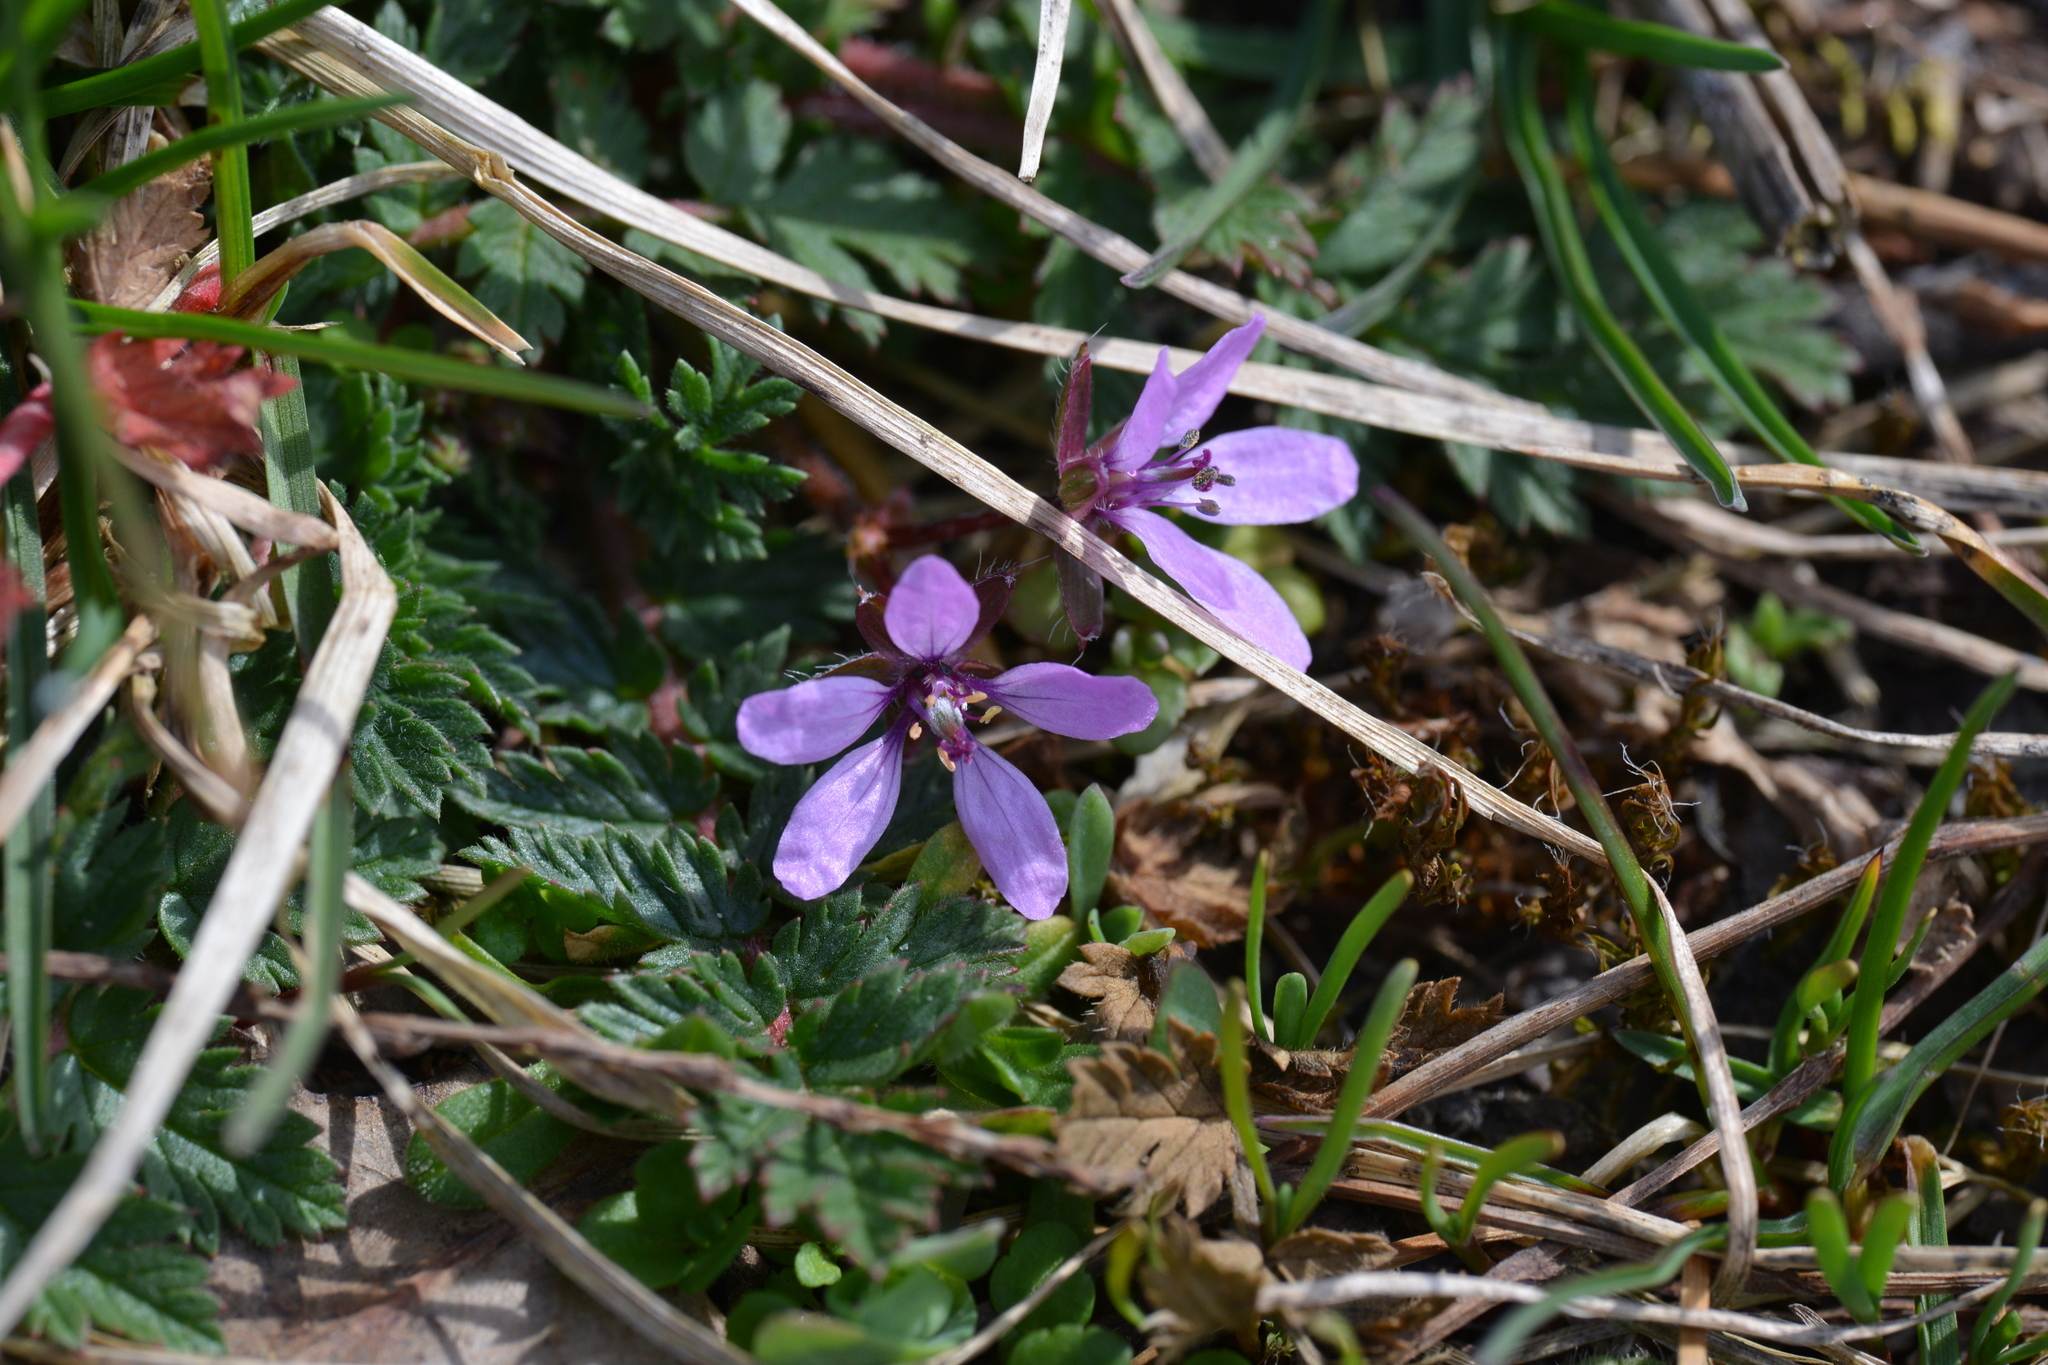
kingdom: Plantae
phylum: Tracheophyta
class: Magnoliopsida
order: Geraniales
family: Geraniaceae
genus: Erodium
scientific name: Erodium cicutarium
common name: Common stork's-bill
